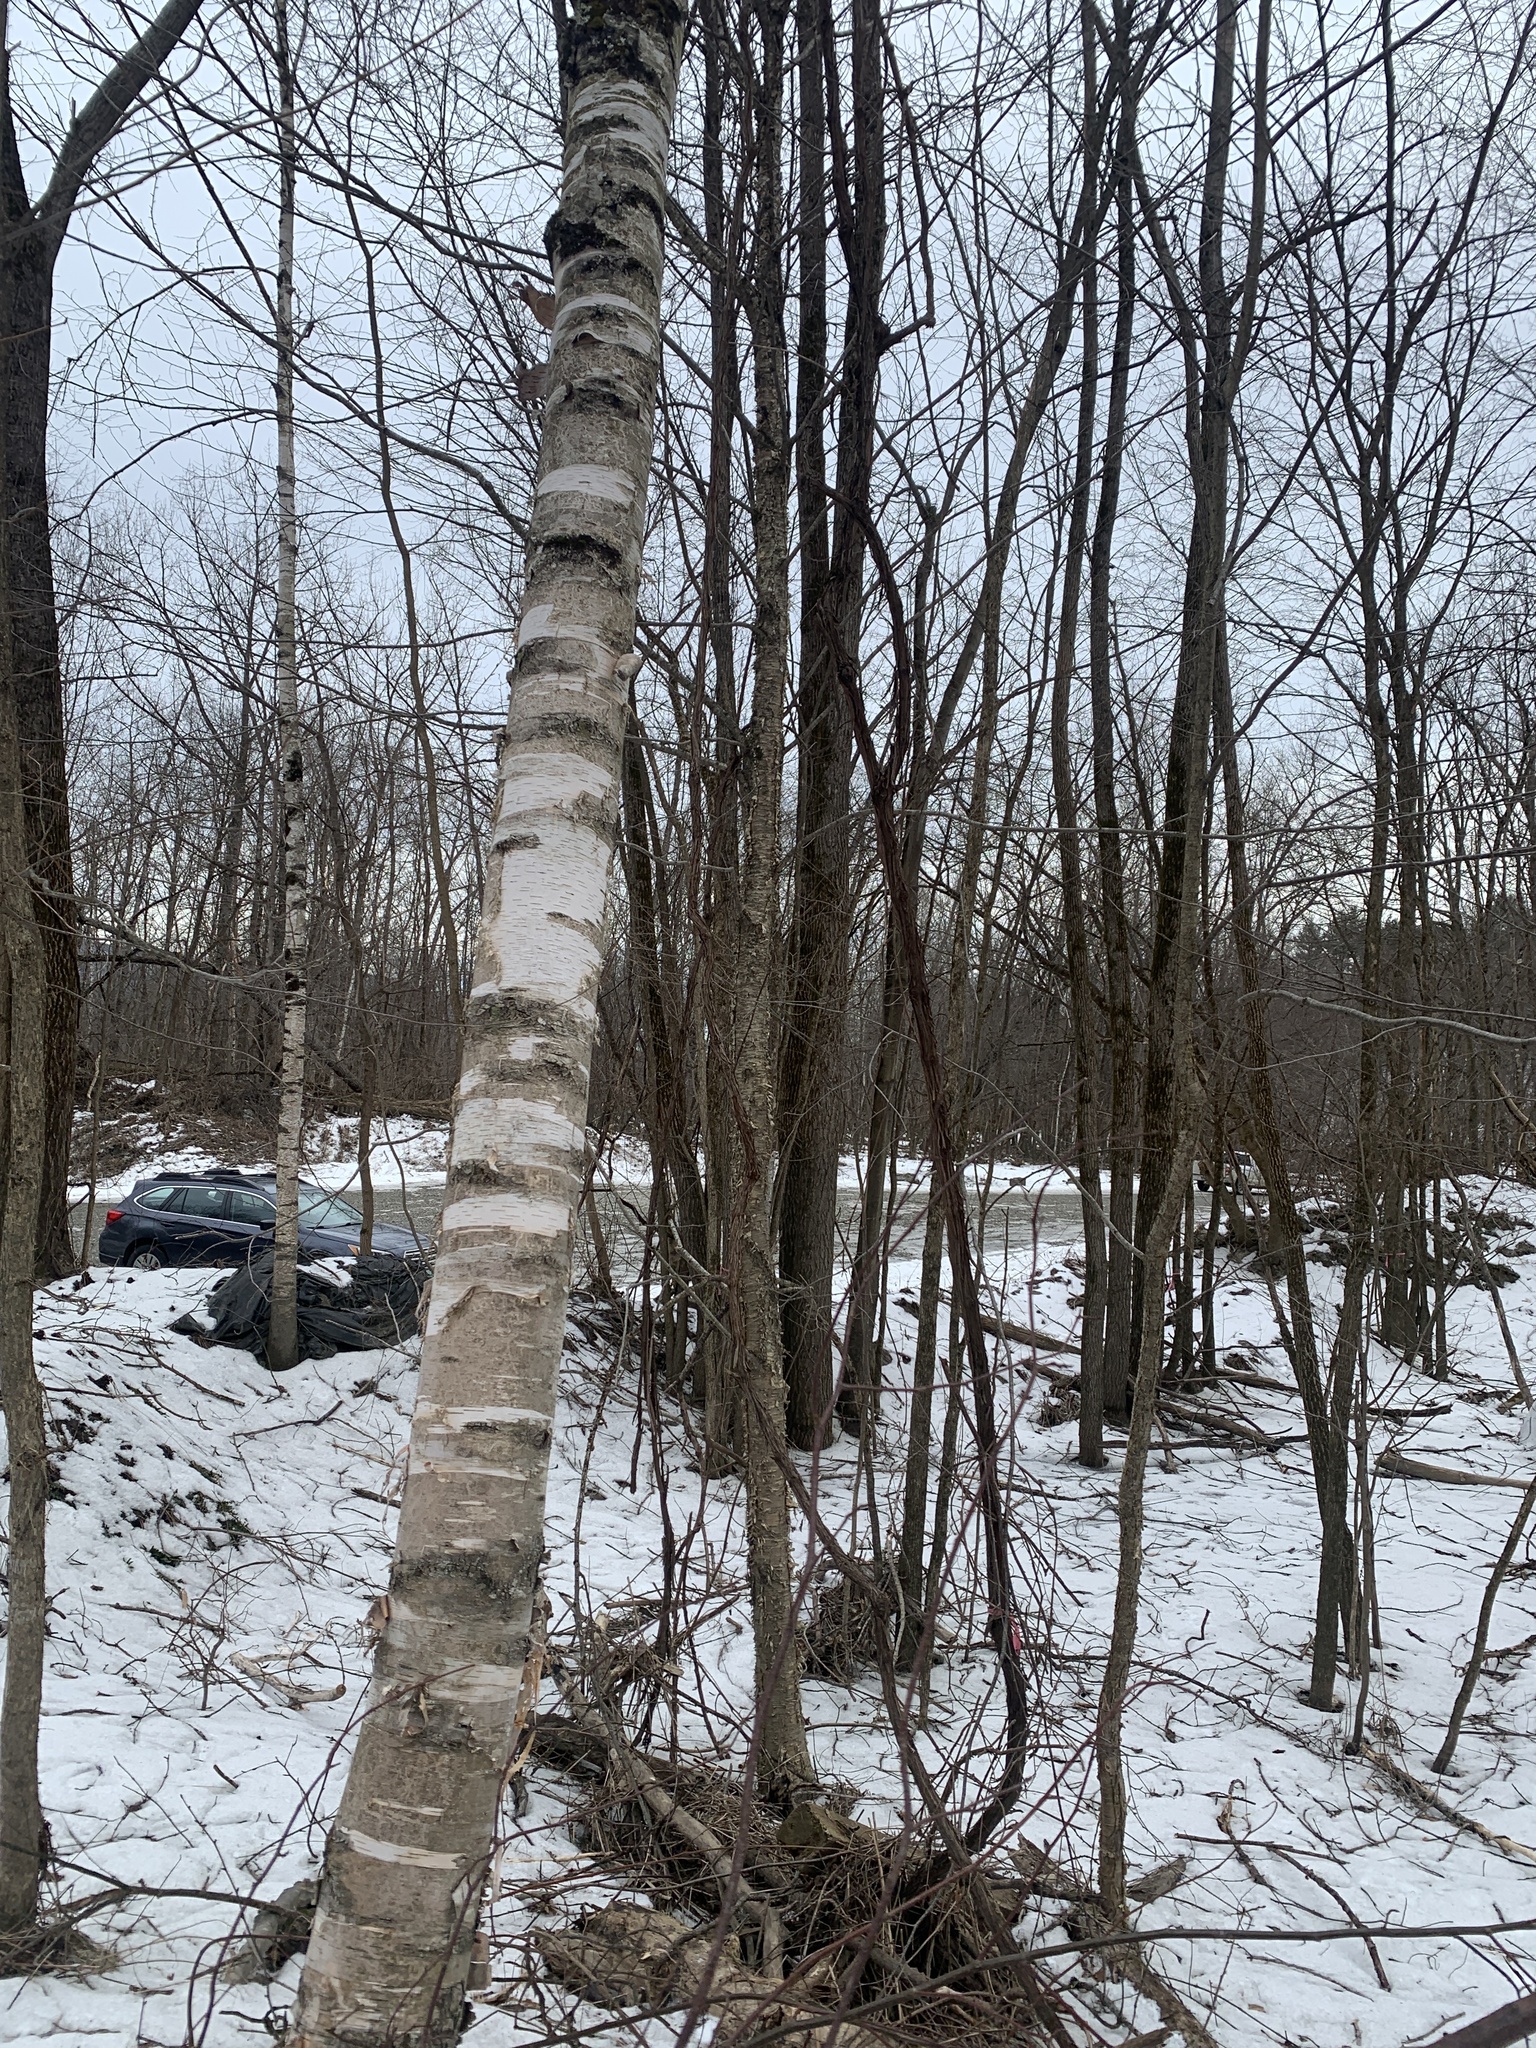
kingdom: Plantae
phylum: Tracheophyta
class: Magnoliopsida
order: Fagales
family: Betulaceae
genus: Betula
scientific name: Betula papyrifera
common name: Paper birch
